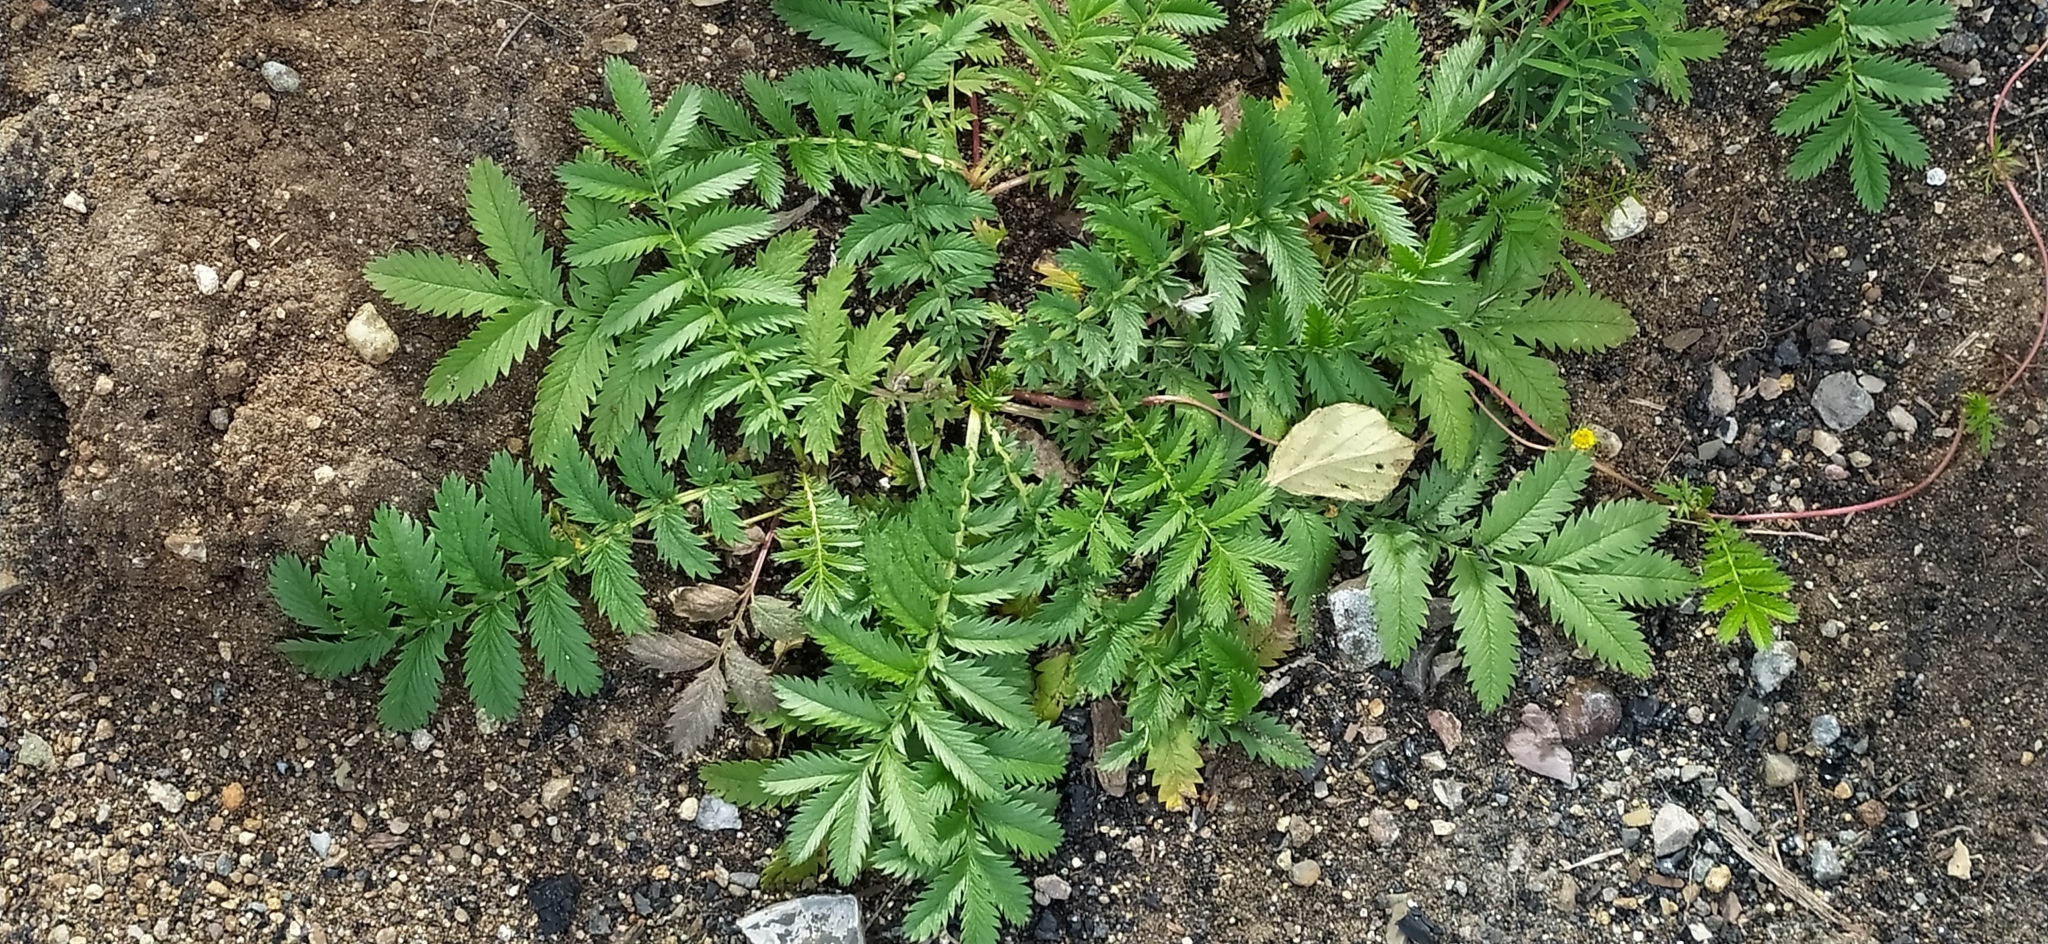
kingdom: Plantae
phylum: Tracheophyta
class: Magnoliopsida
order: Rosales
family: Rosaceae
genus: Argentina
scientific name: Argentina anserina
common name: Common silverweed
